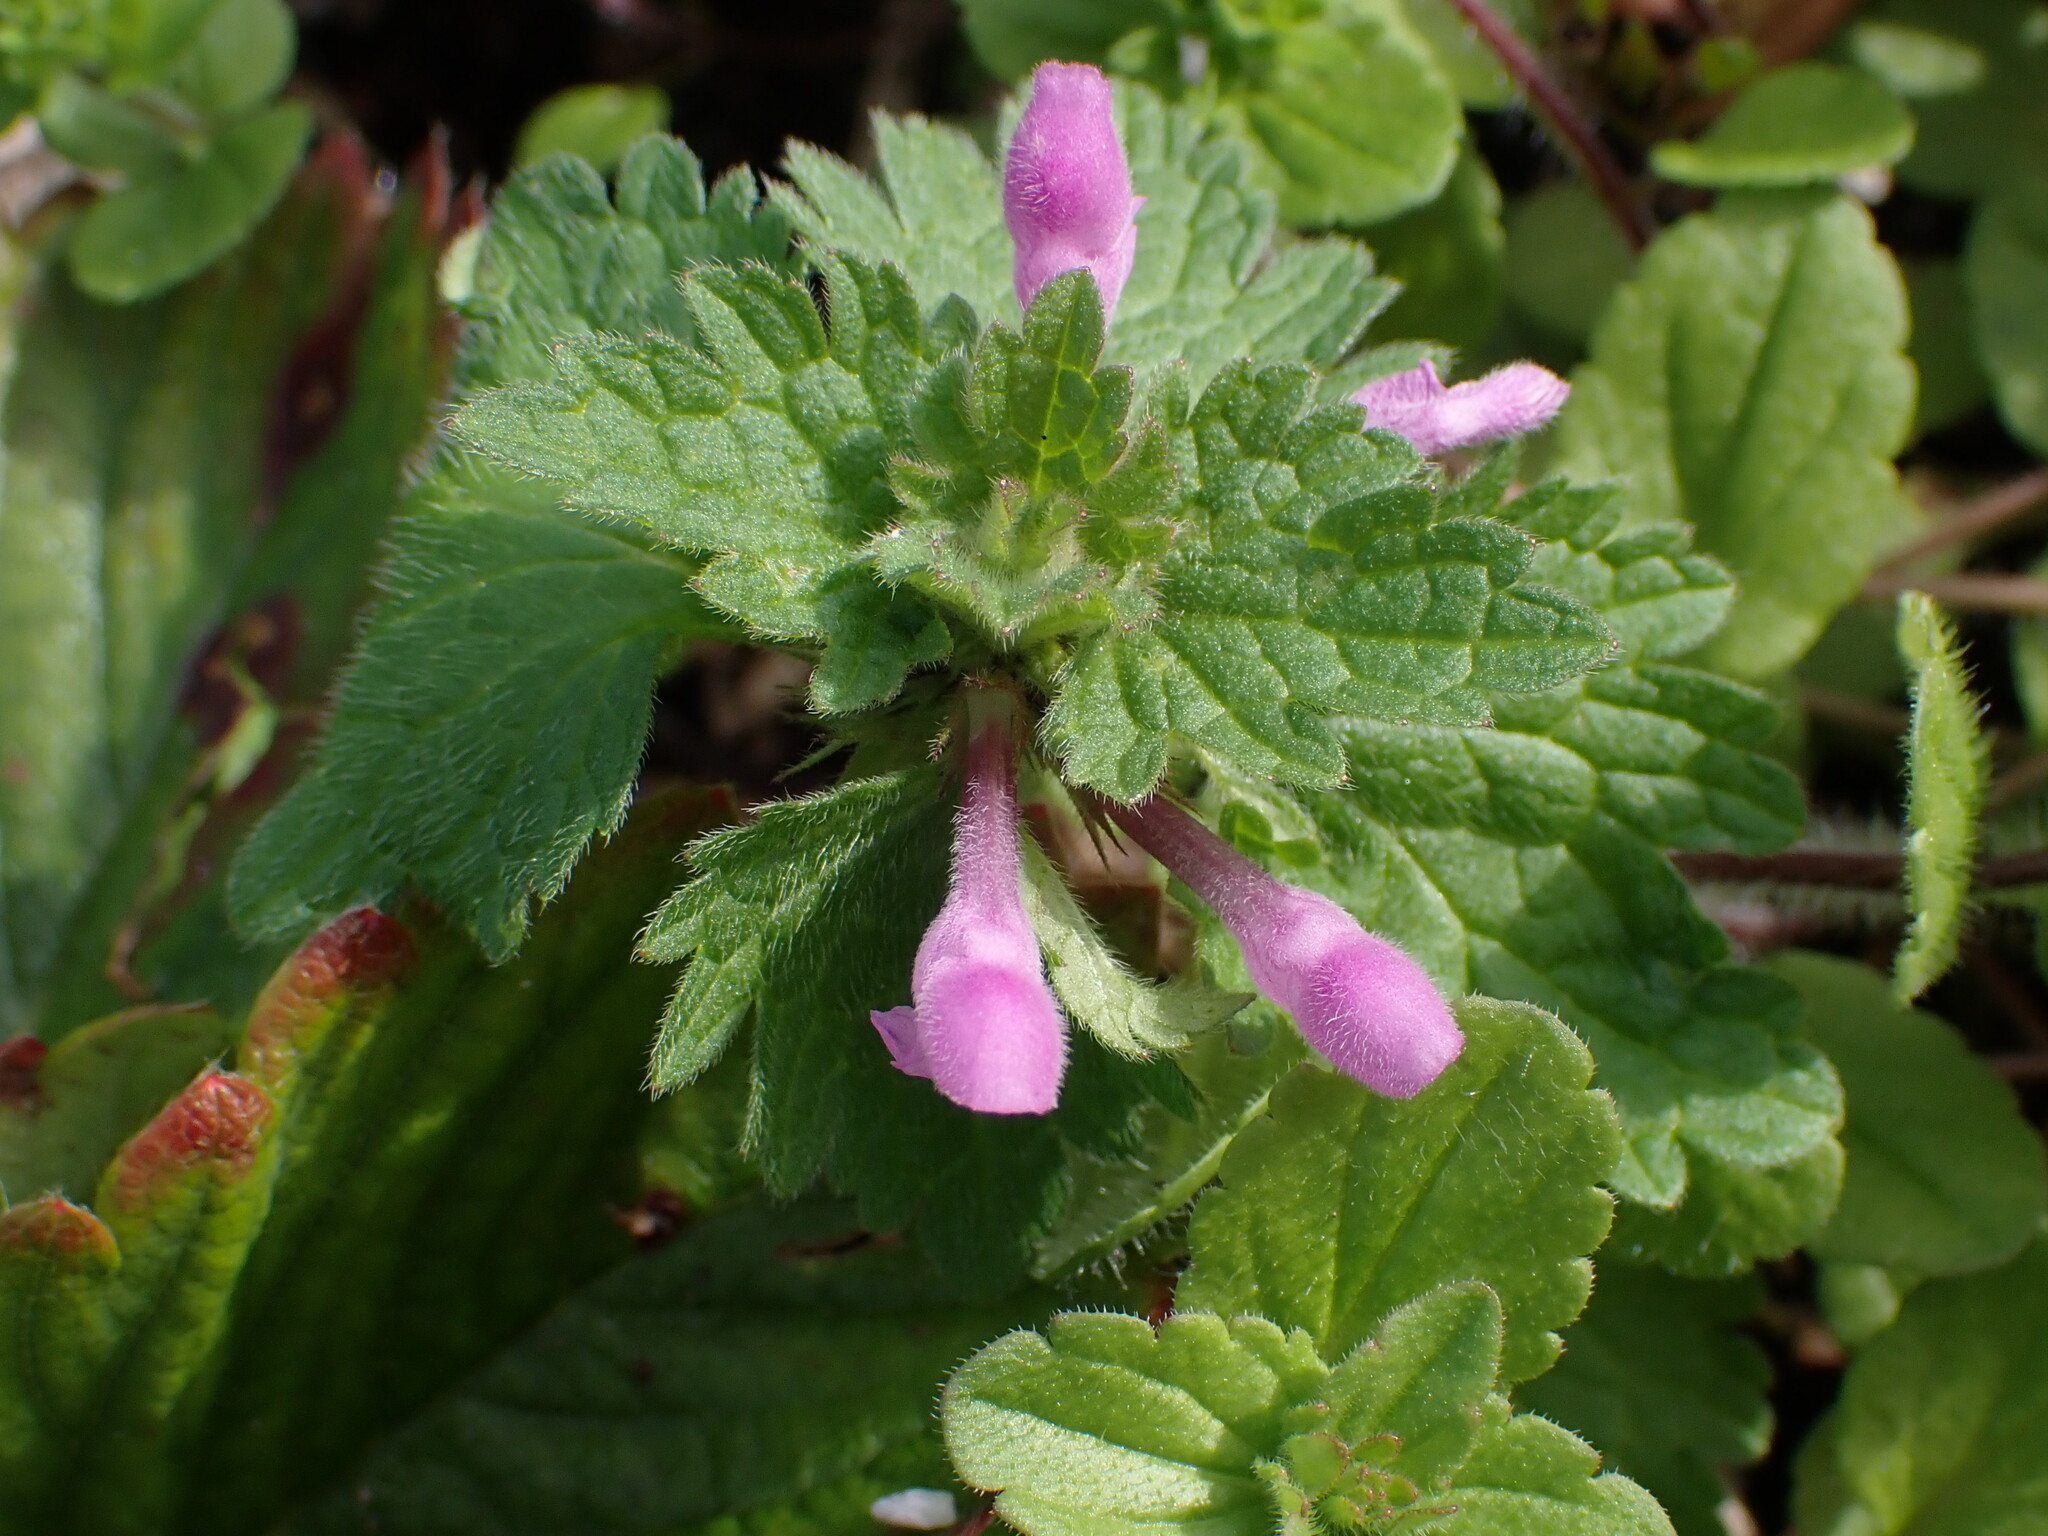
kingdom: Plantae
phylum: Tracheophyta
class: Magnoliopsida
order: Lamiales
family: Lamiaceae
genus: Lamium
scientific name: Lamium hybridum
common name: Cut-leaved dead-nettle
